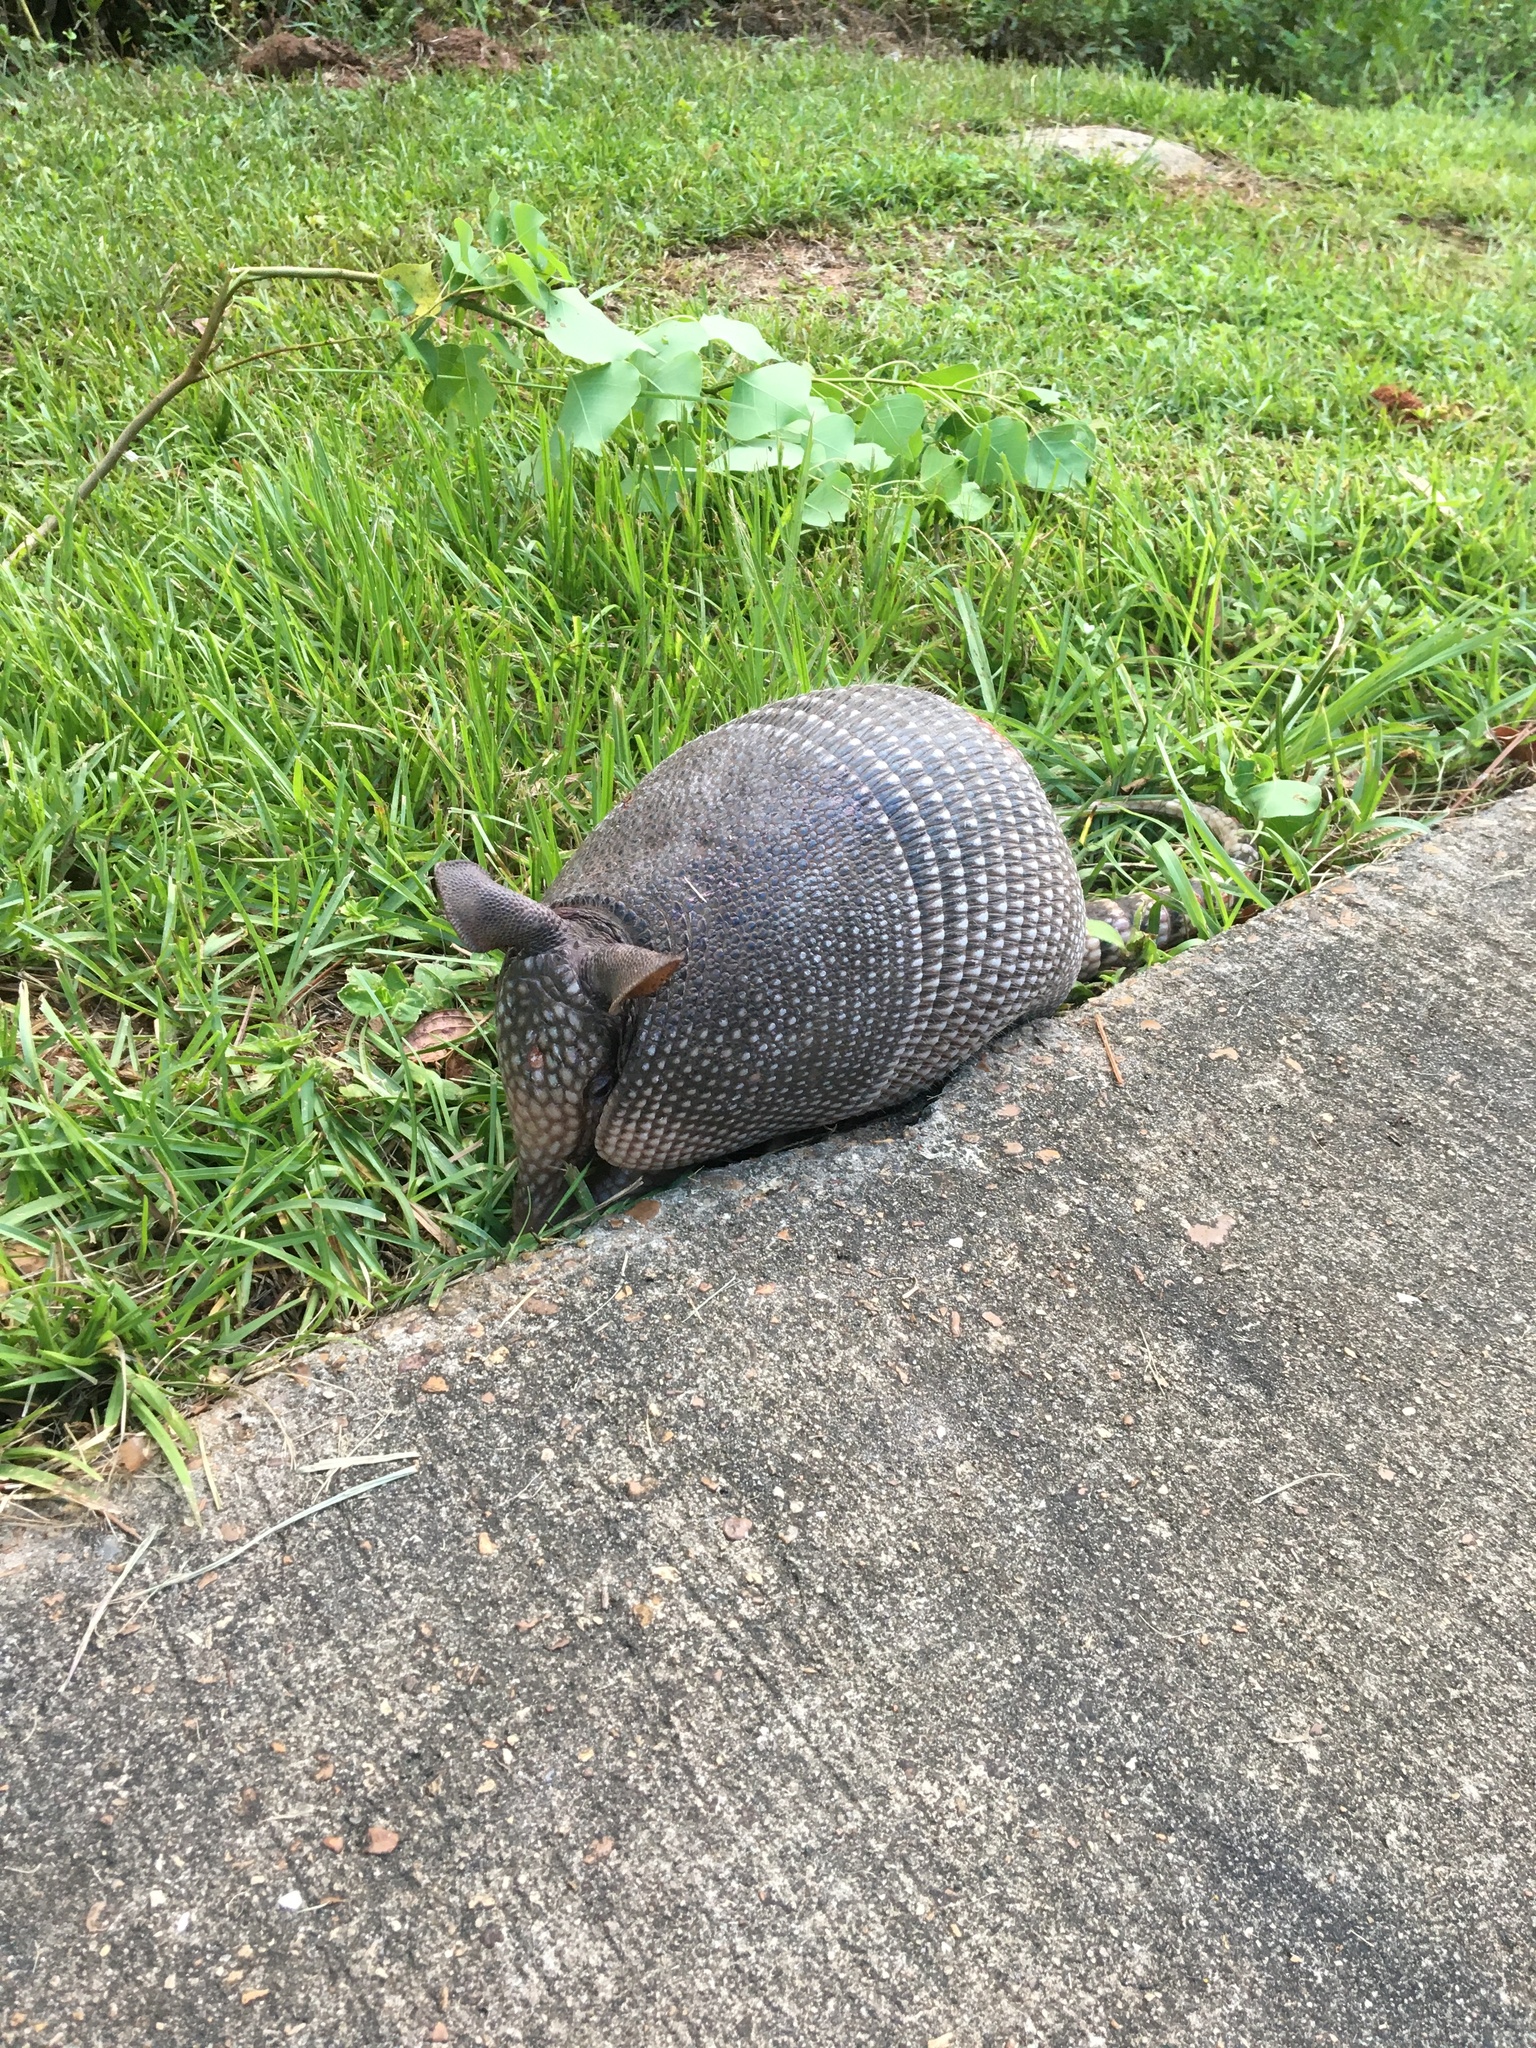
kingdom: Animalia
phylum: Chordata
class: Mammalia
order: Cingulata
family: Dasypodidae
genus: Dasypus
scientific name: Dasypus novemcinctus
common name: Nine-banded armadillo
